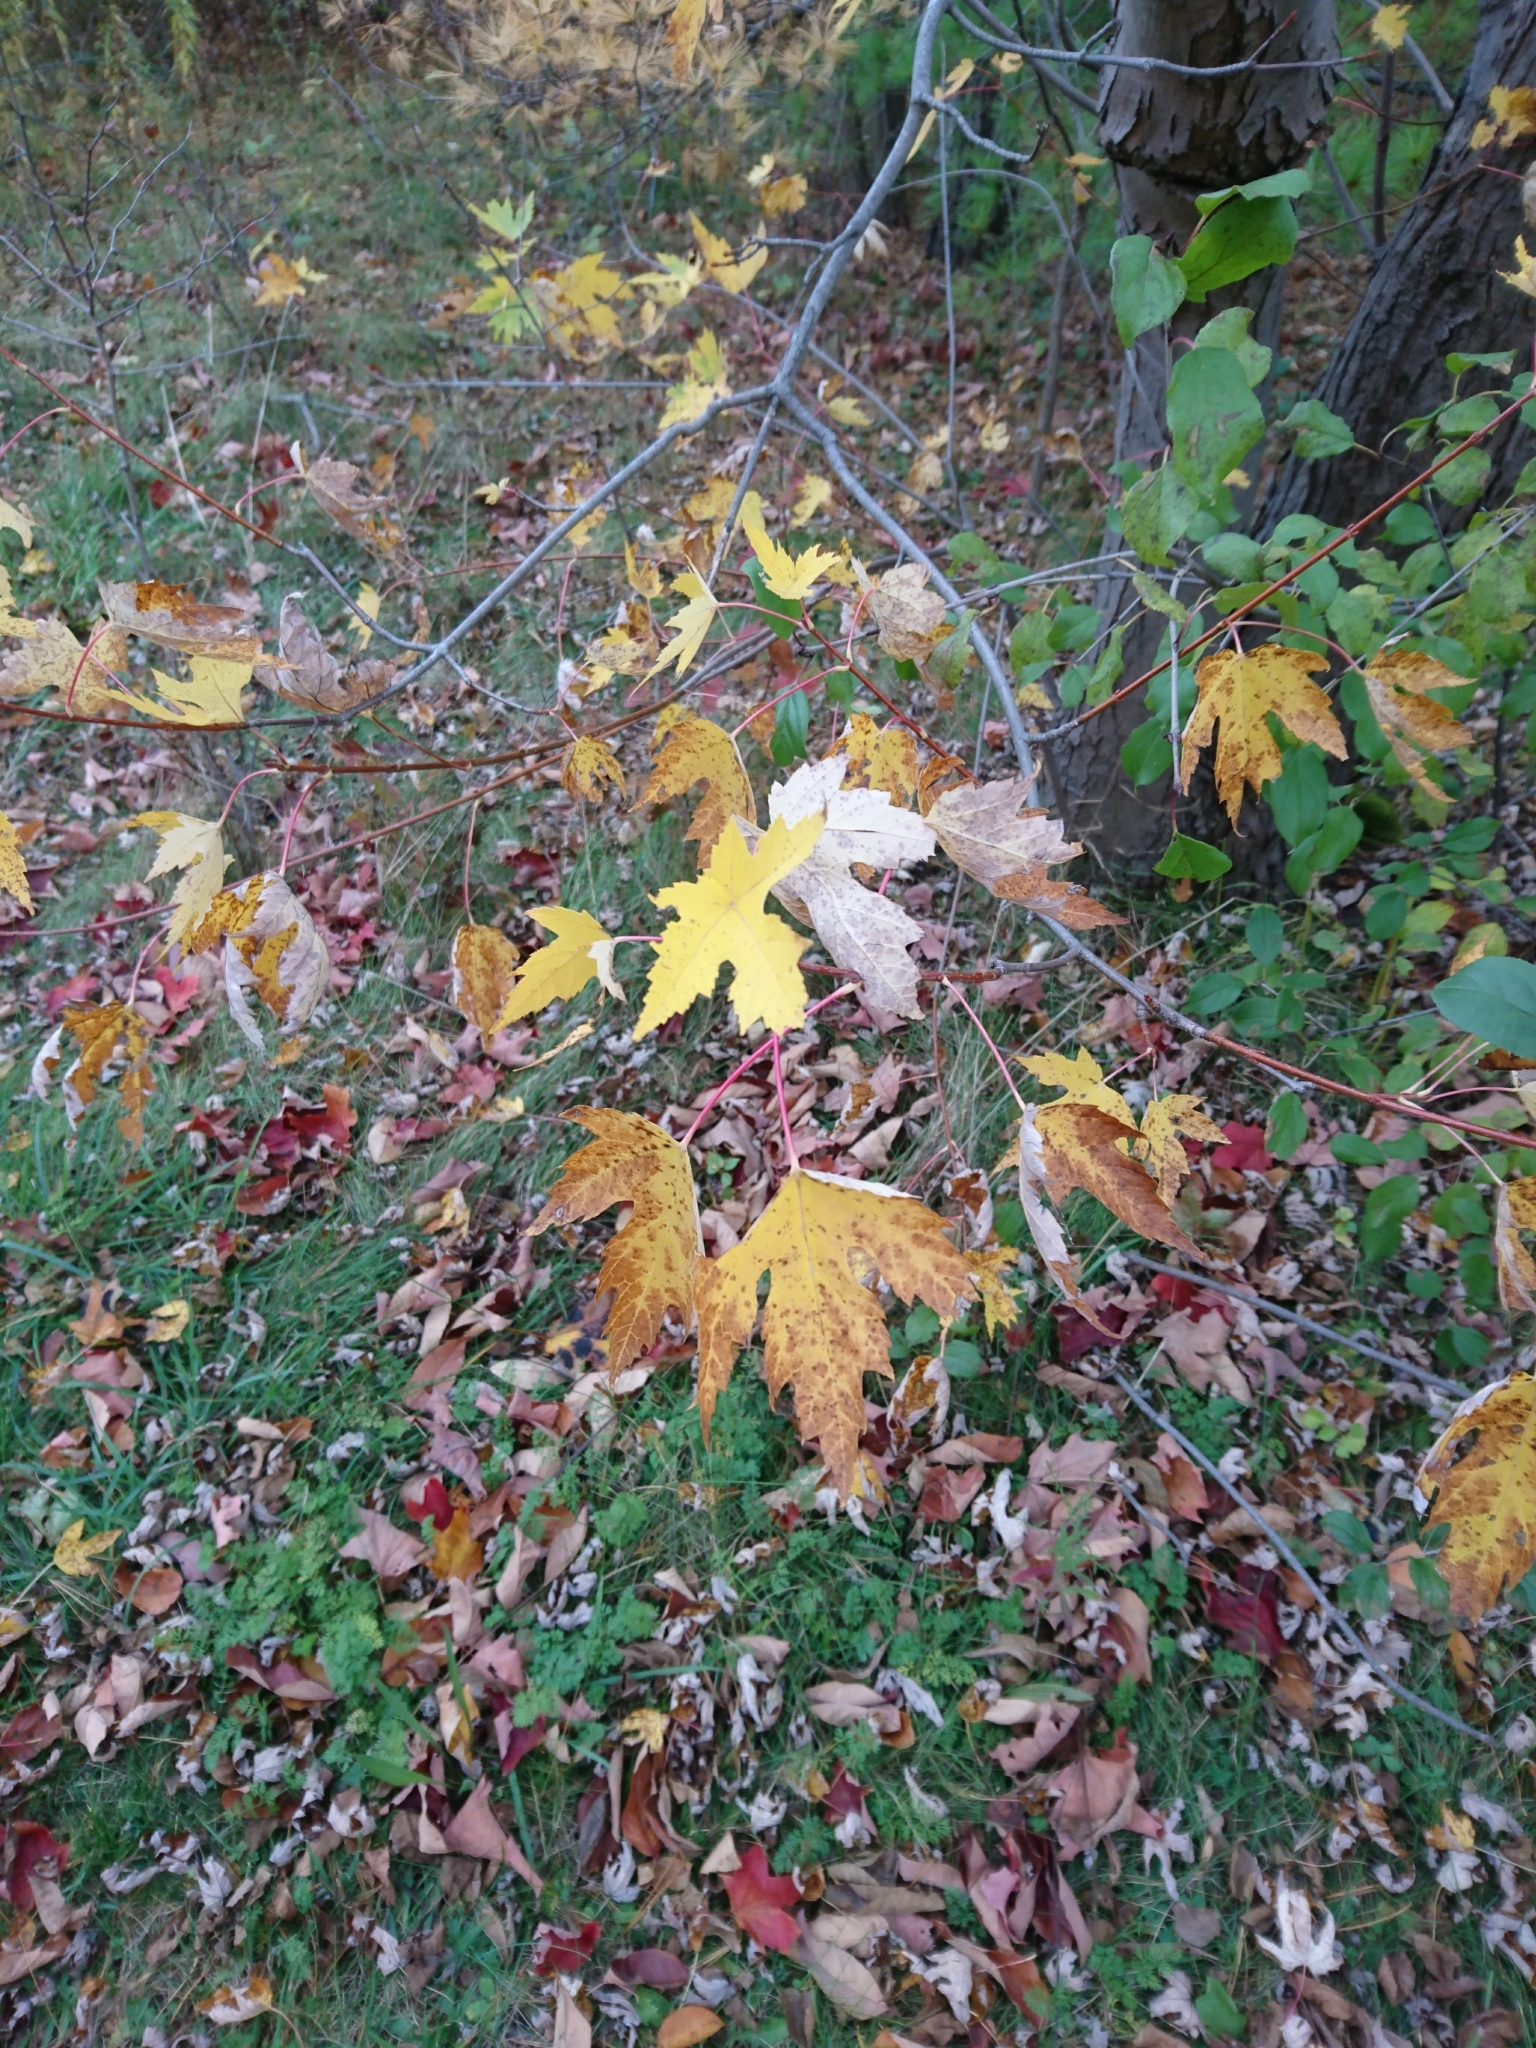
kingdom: Plantae
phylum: Tracheophyta
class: Magnoliopsida
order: Sapindales
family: Sapindaceae
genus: Acer
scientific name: Acer saccharinum
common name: Silver maple
